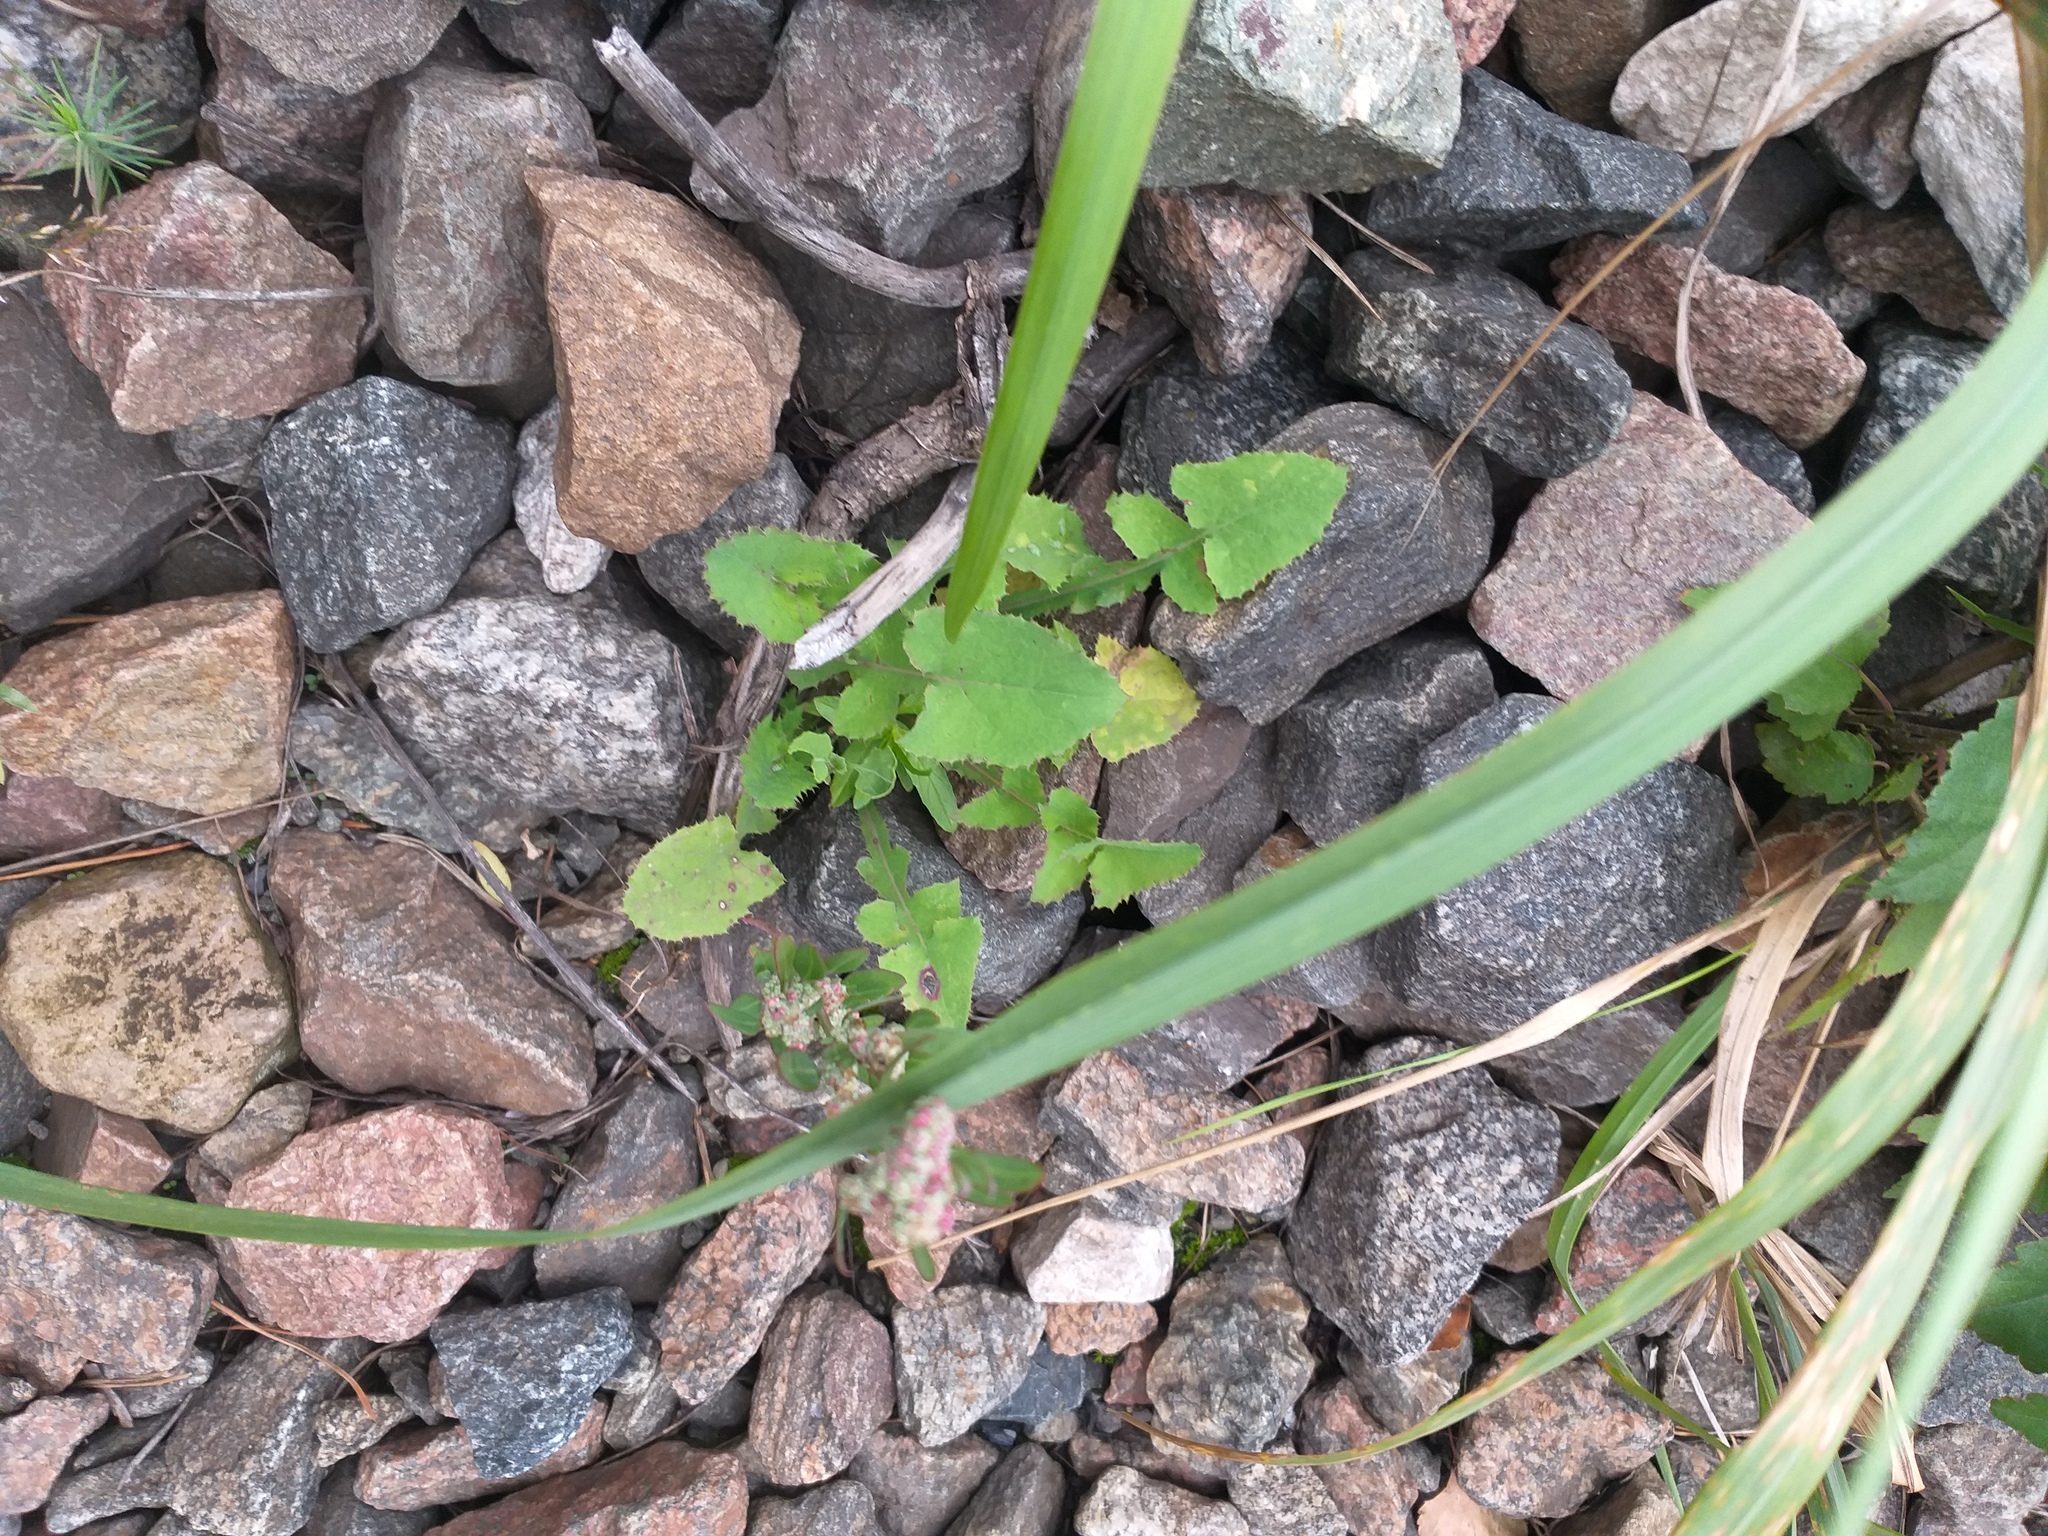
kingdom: Plantae
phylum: Tracheophyta
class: Magnoliopsida
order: Asterales
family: Asteraceae
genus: Sonchus
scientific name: Sonchus oleraceus
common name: Common sowthistle
